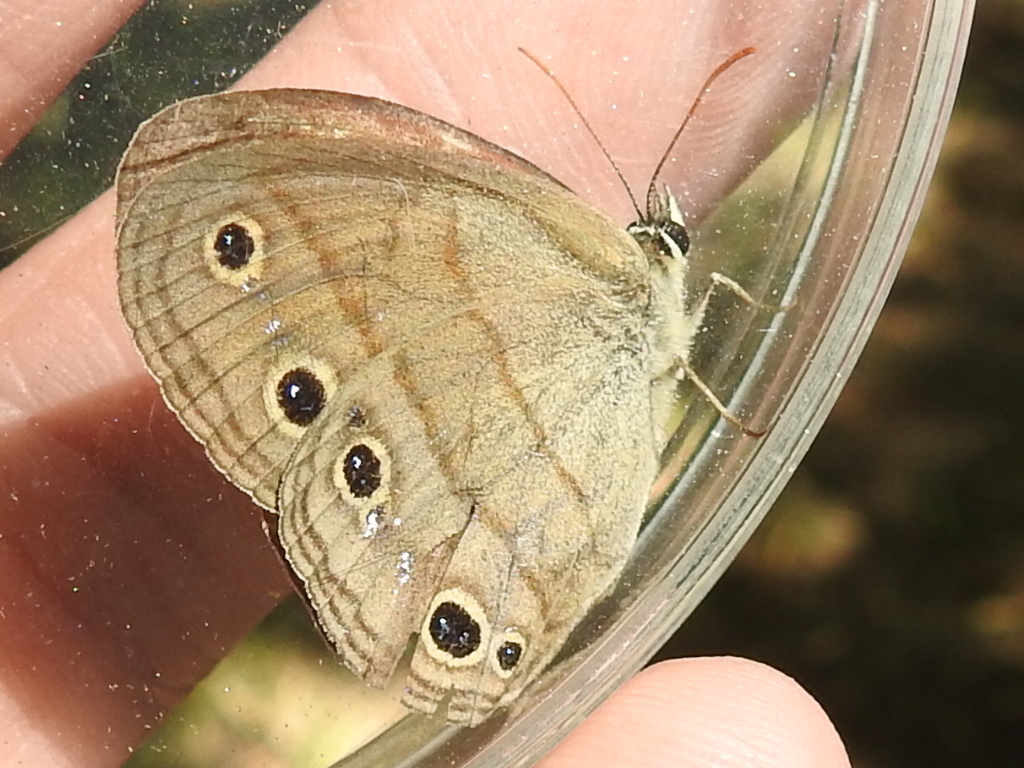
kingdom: Animalia
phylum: Arthropoda
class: Insecta
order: Lepidoptera
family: Nymphalidae
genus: Euptychia
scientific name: Euptychia cymela
